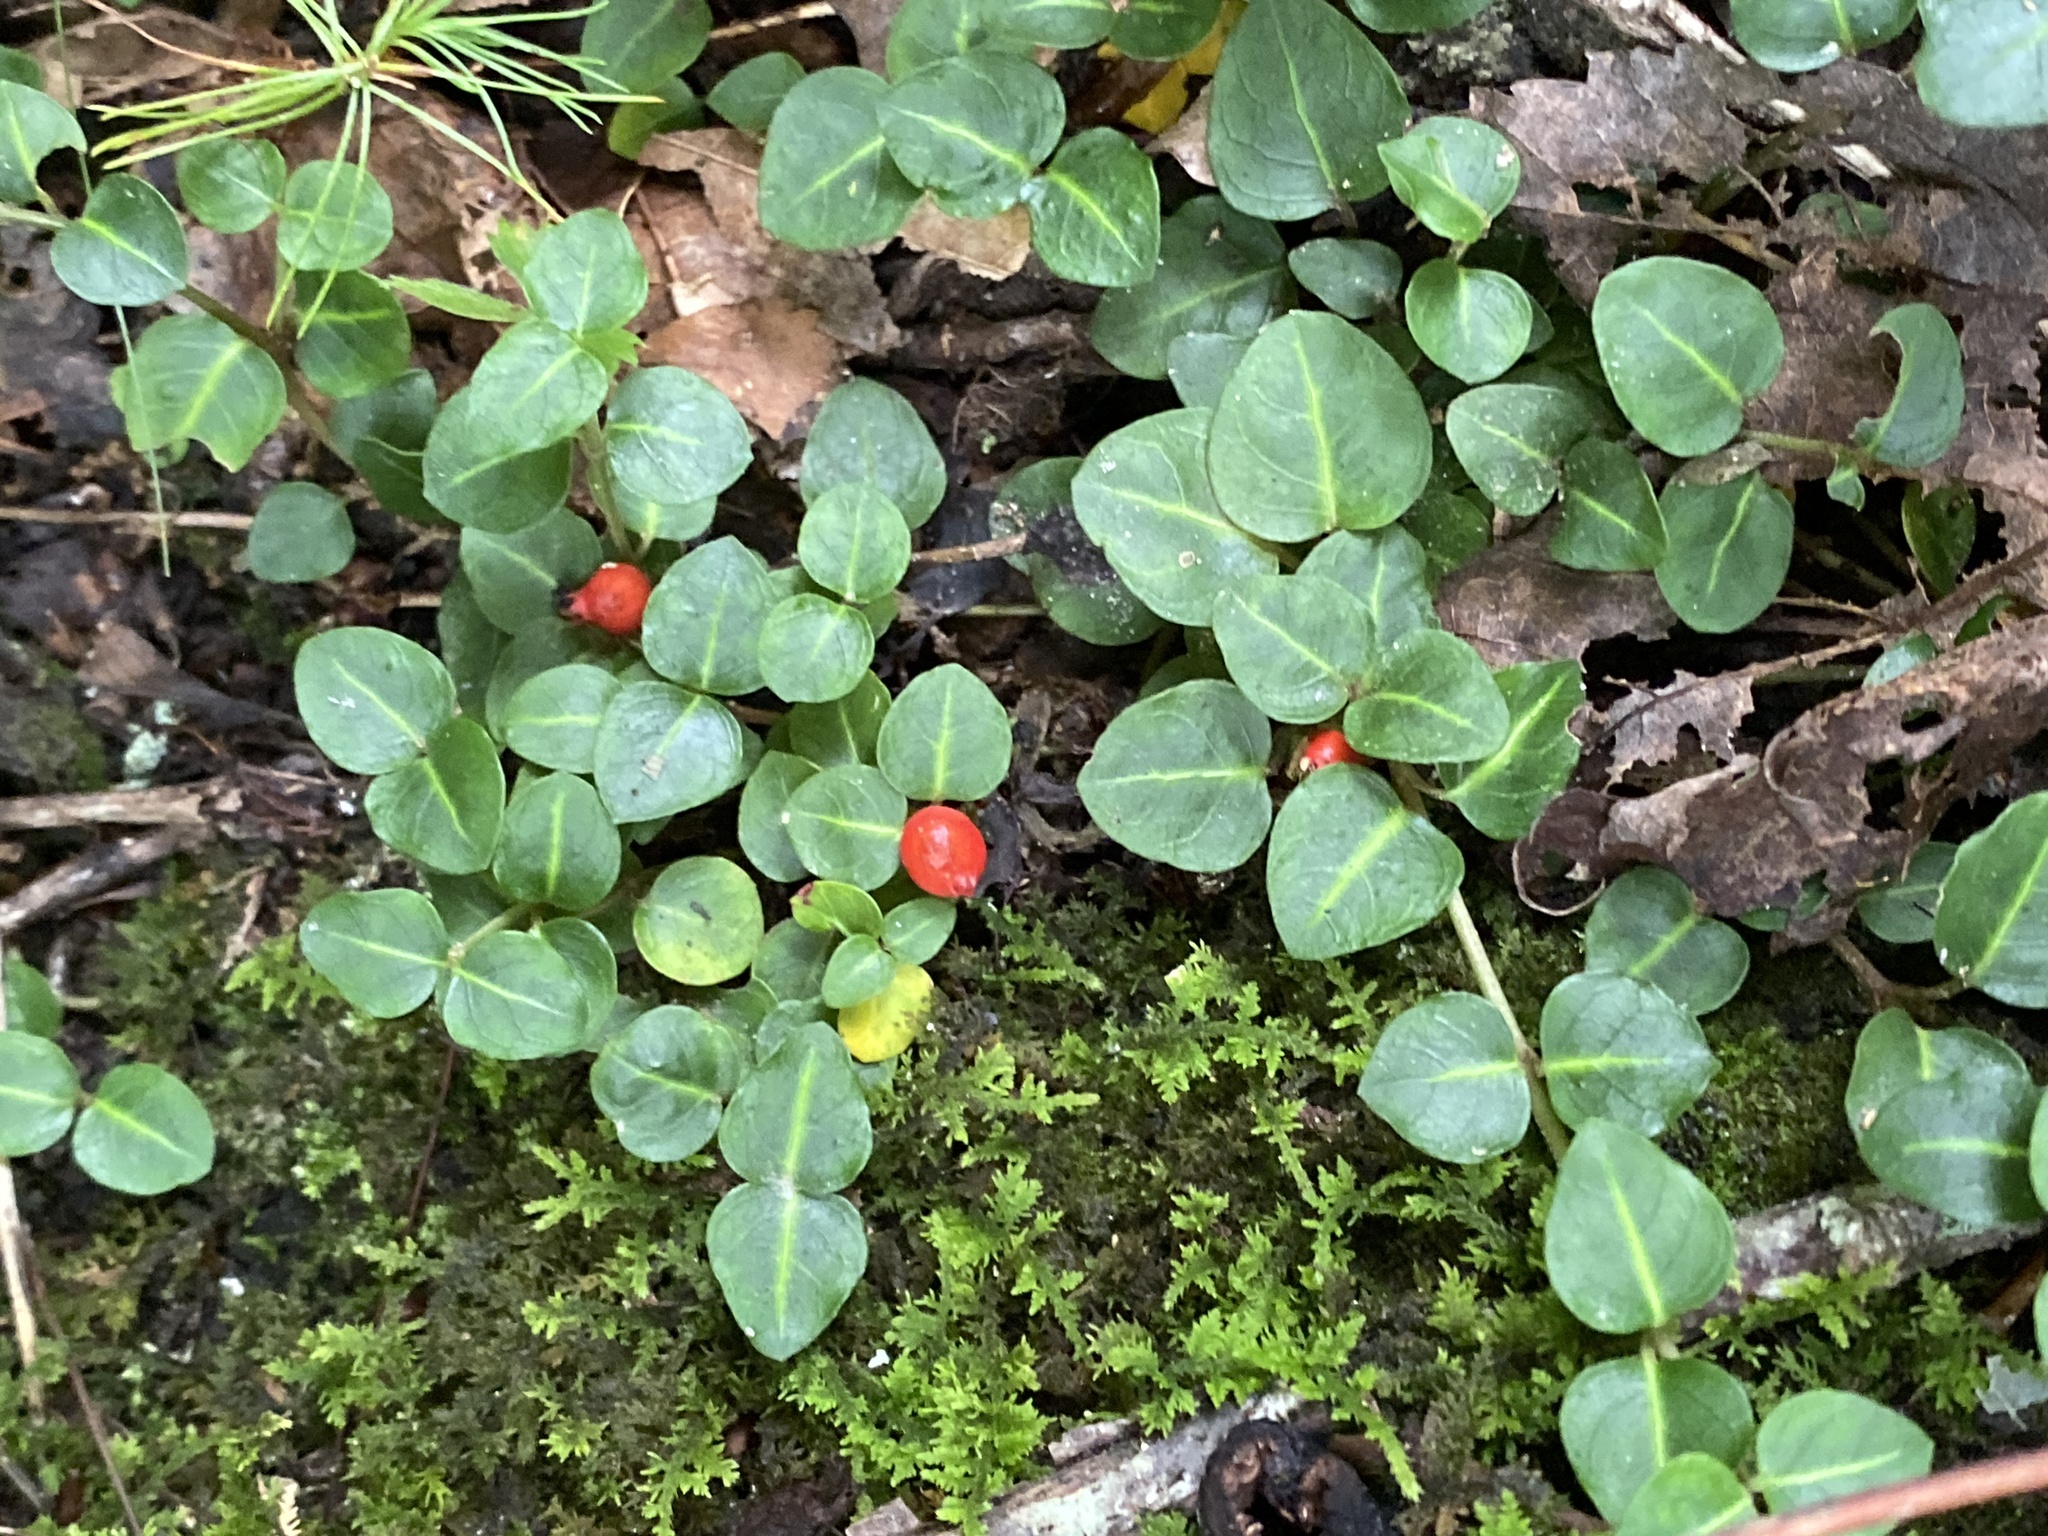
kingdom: Plantae
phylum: Tracheophyta
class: Magnoliopsida
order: Gentianales
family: Rubiaceae
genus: Mitchella
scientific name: Mitchella repens
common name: Partridge-berry
